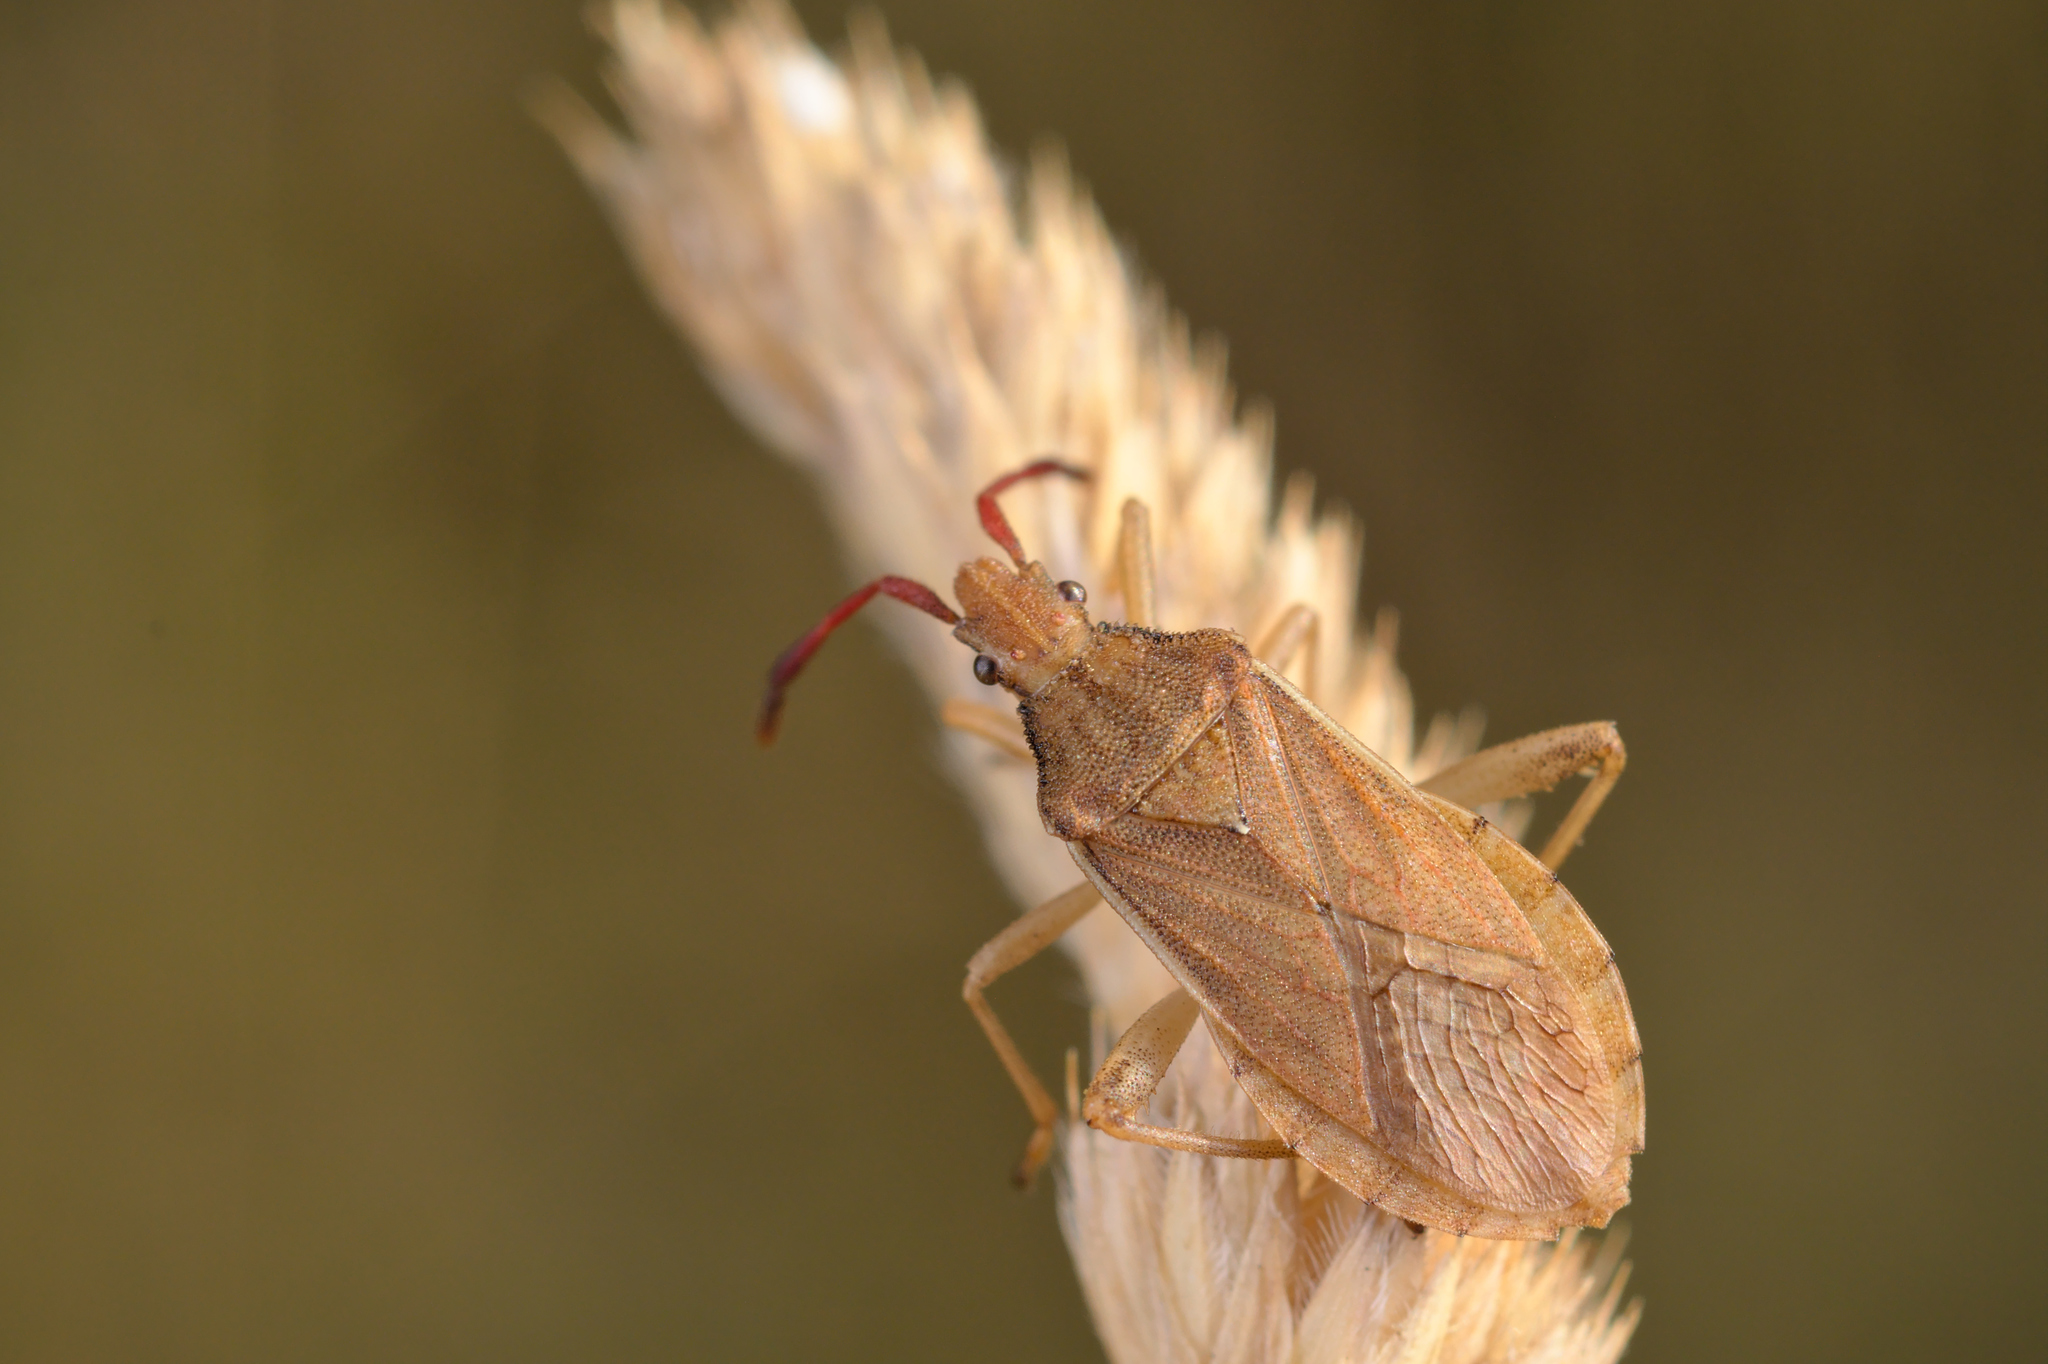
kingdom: Animalia
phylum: Arthropoda
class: Insecta
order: Hemiptera
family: Coreidae
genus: Ceraleptus
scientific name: Ceraleptus lividus
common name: Slender-horned leatherbug
